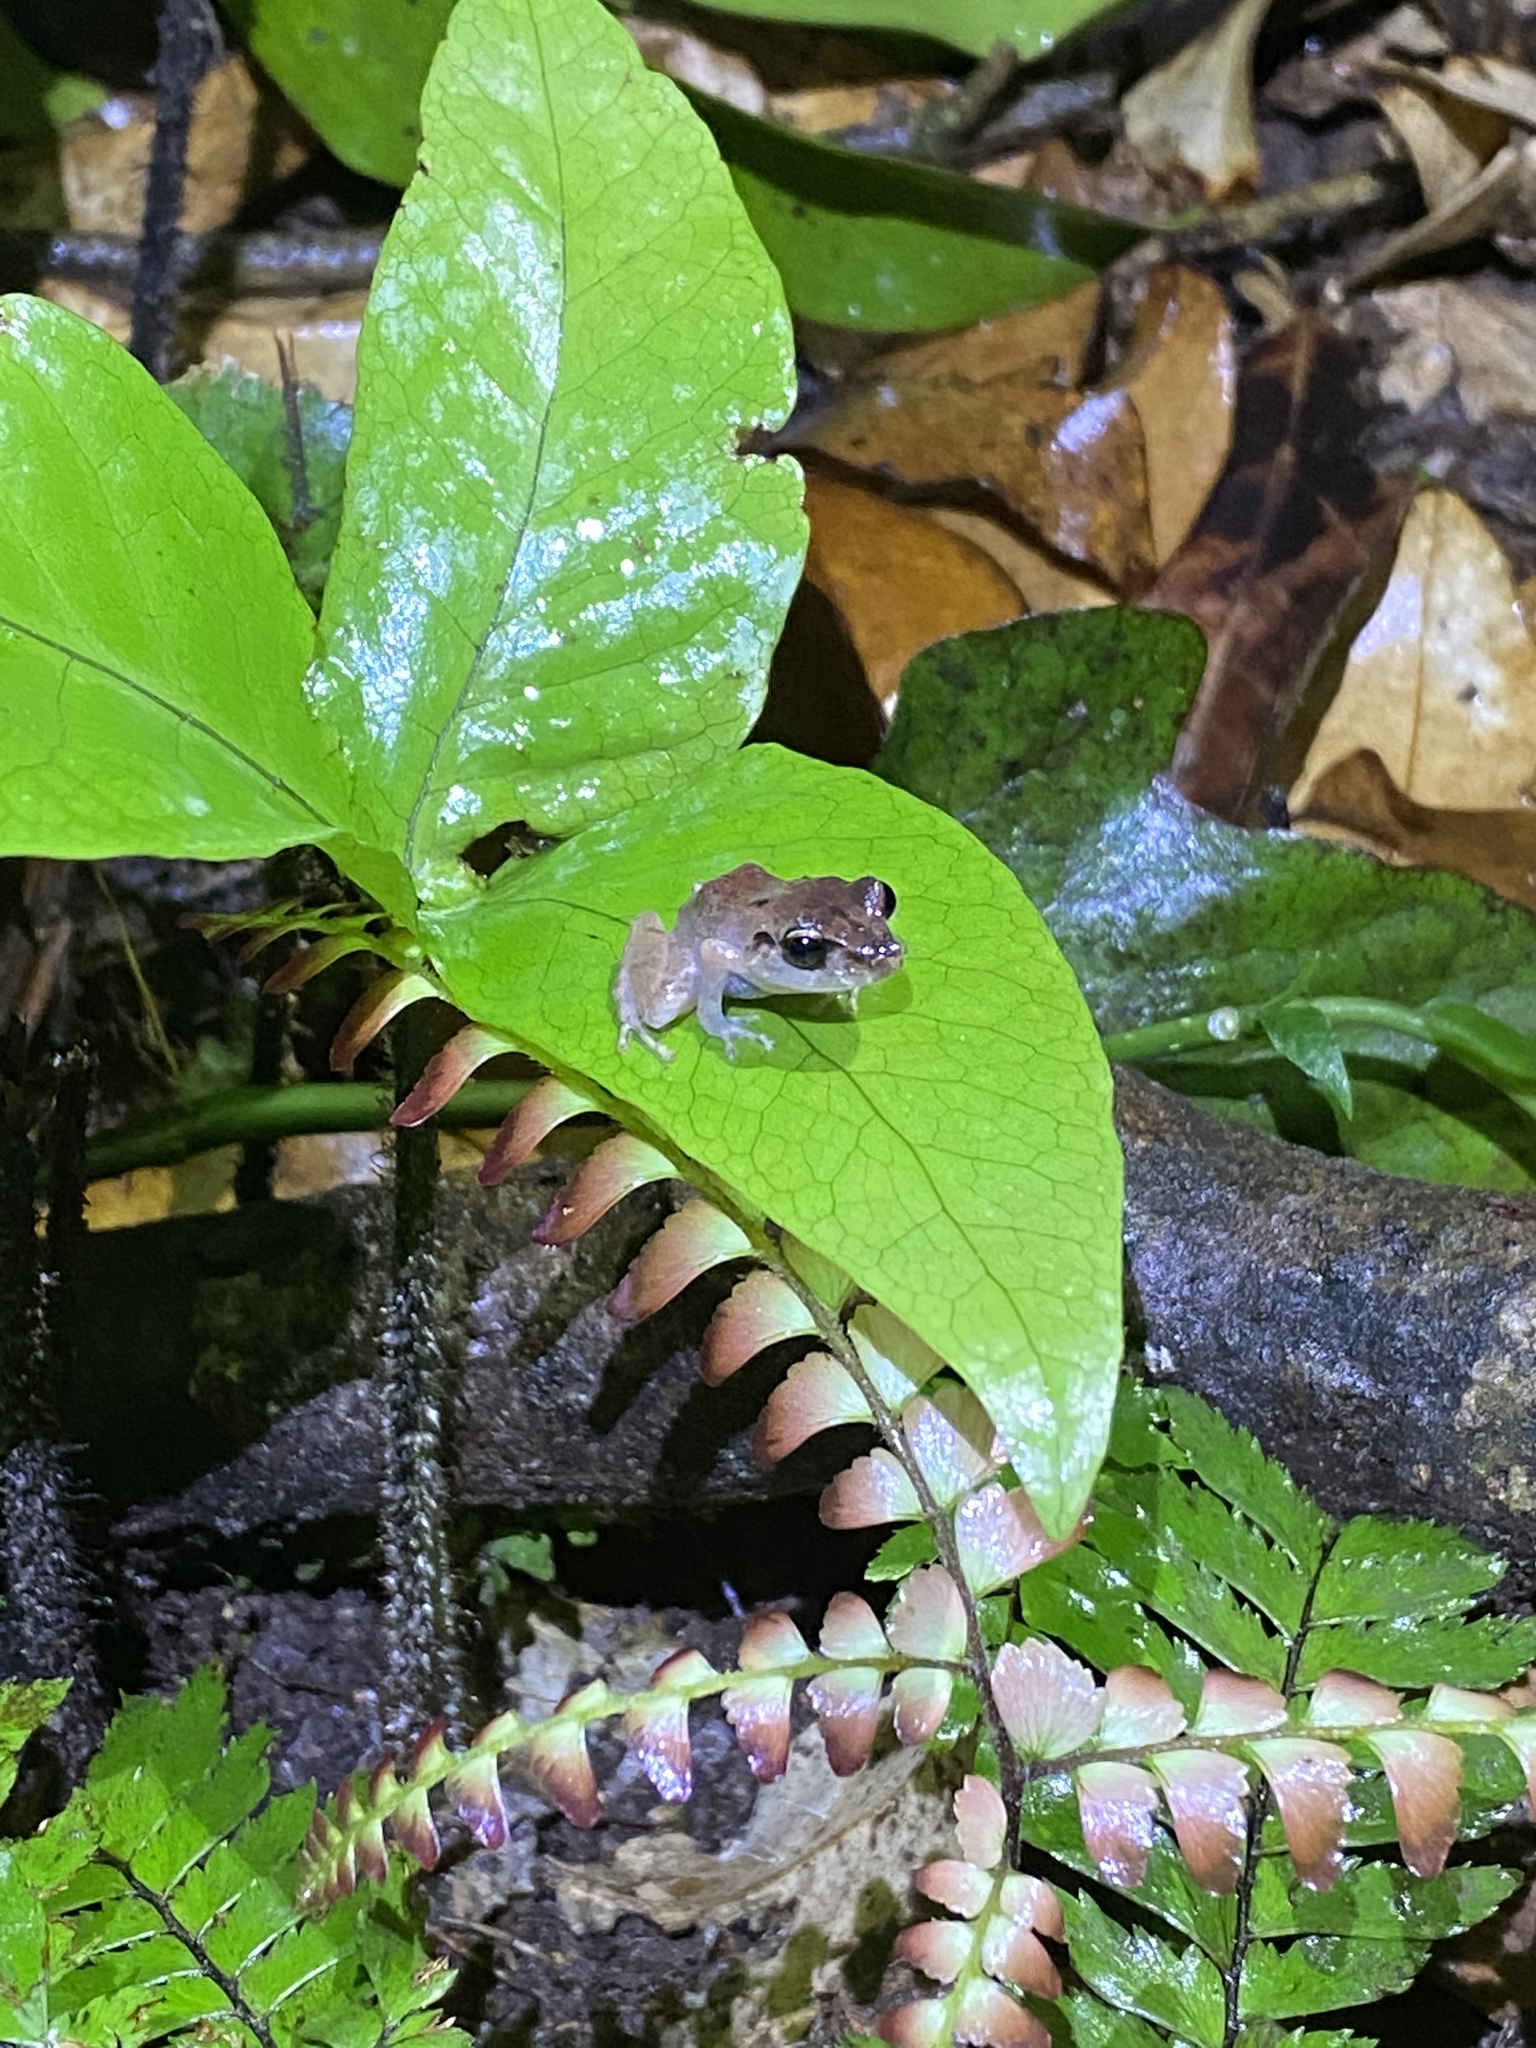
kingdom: Animalia
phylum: Chordata
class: Amphibia
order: Anura
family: Craugastoridae
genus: Pristimantis
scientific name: Pristimantis urichi
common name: Lesser antilles robber frog
